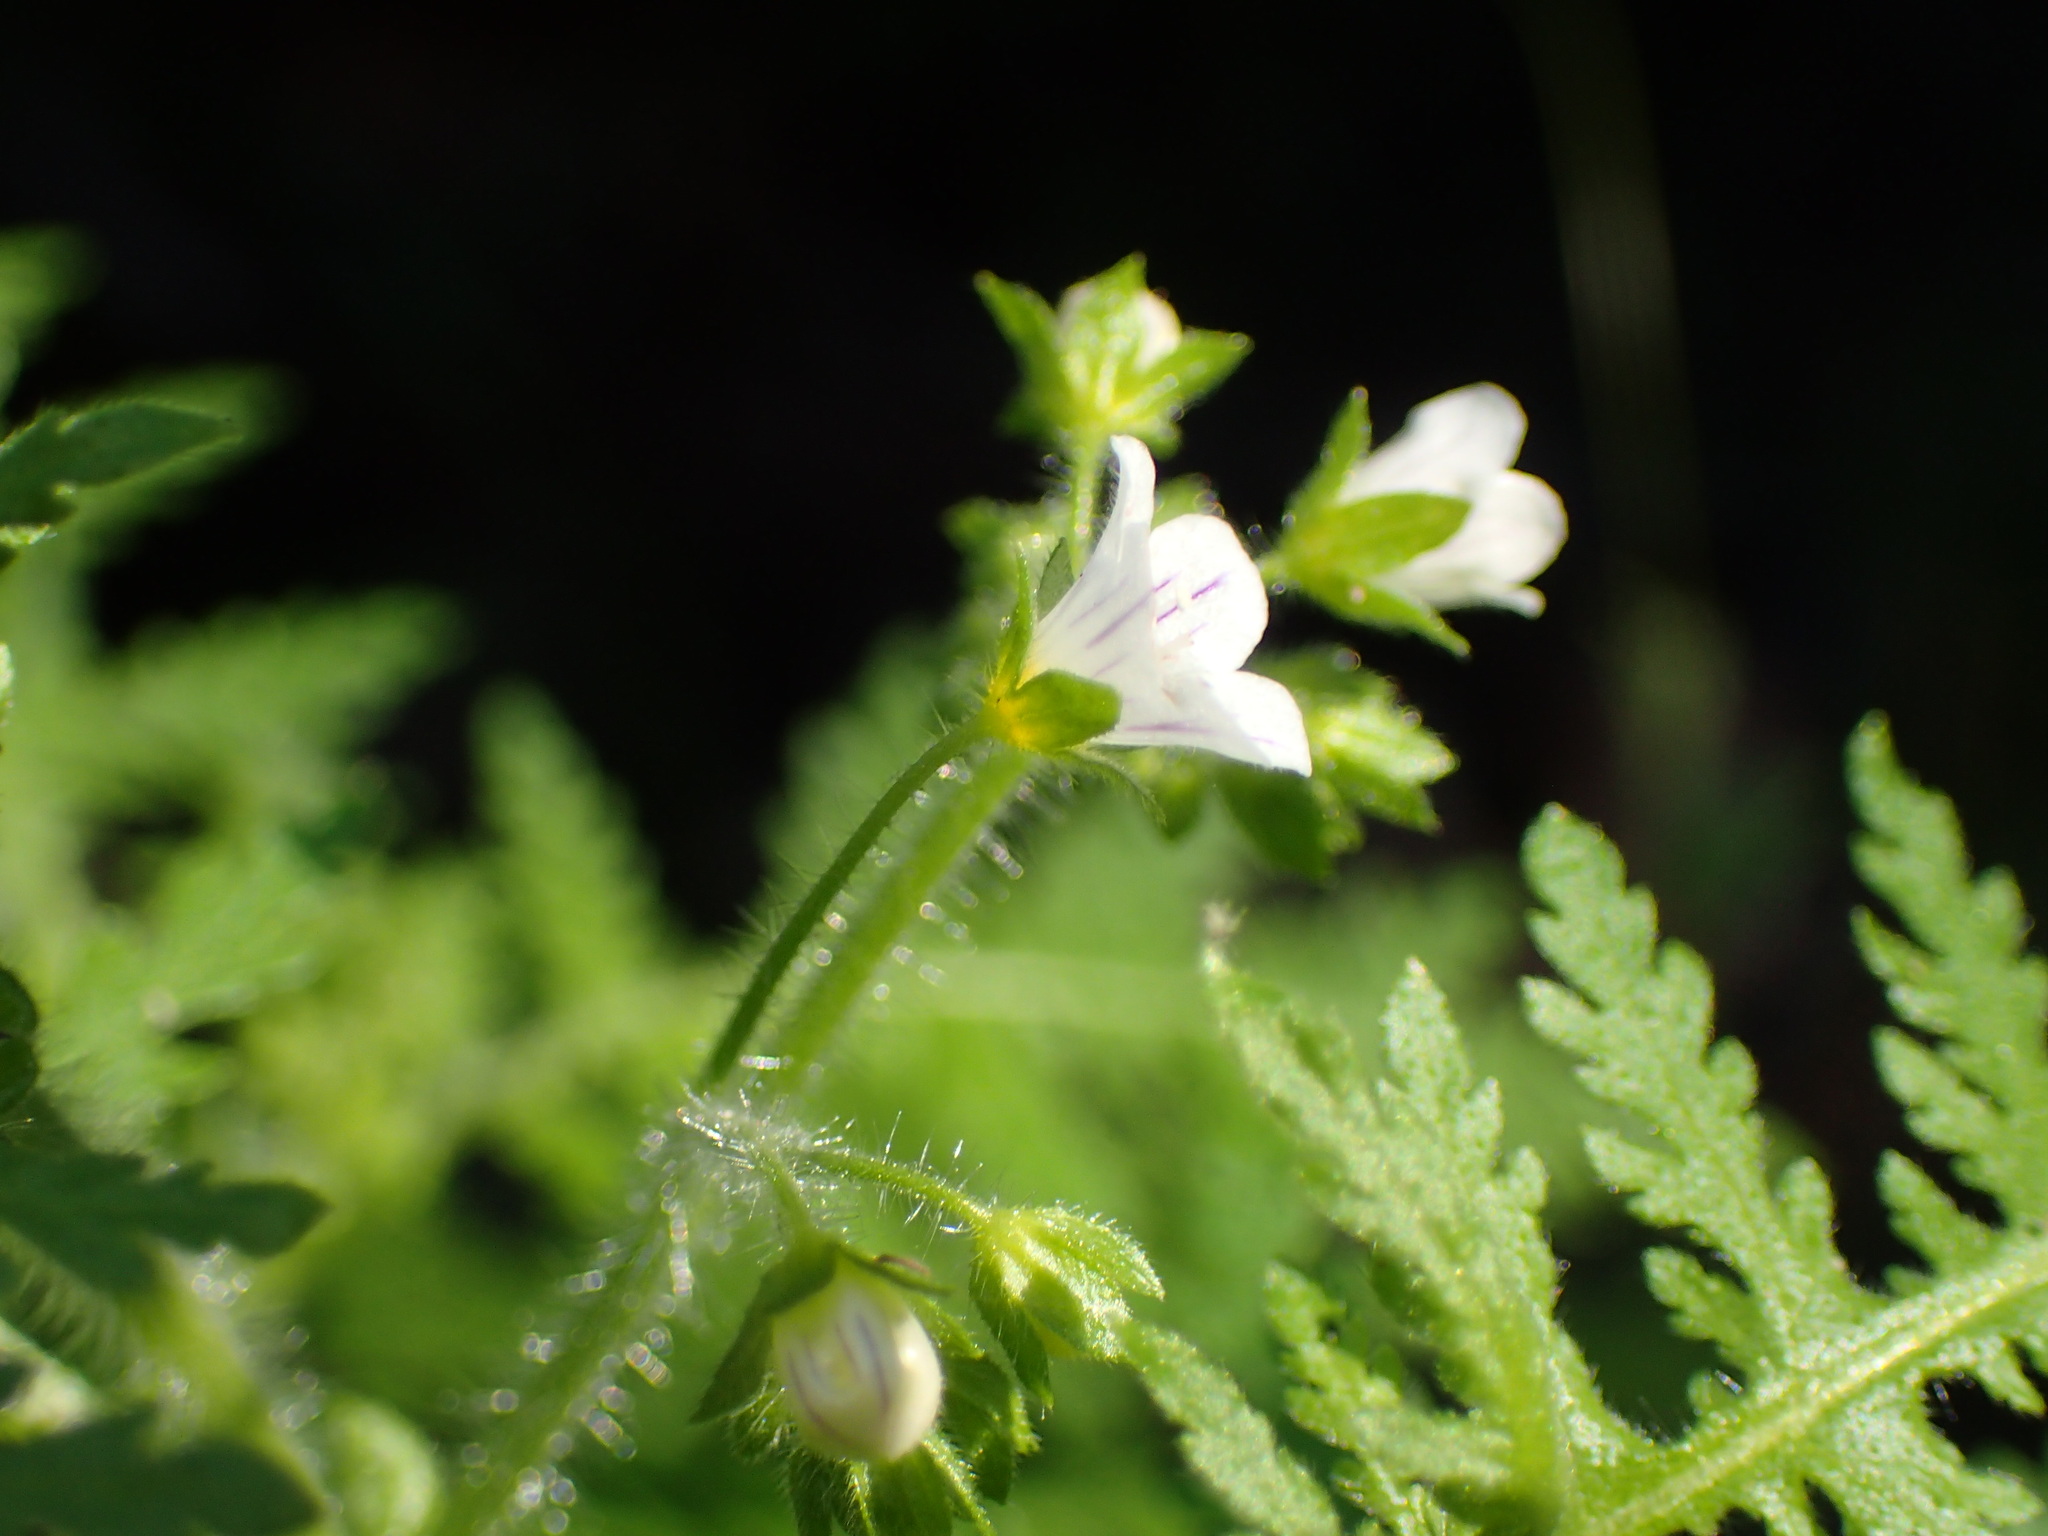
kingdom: Plantae
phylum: Tracheophyta
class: Magnoliopsida
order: Boraginales
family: Hydrophyllaceae
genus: Eucrypta
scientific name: Eucrypta chrysanthemifolia
